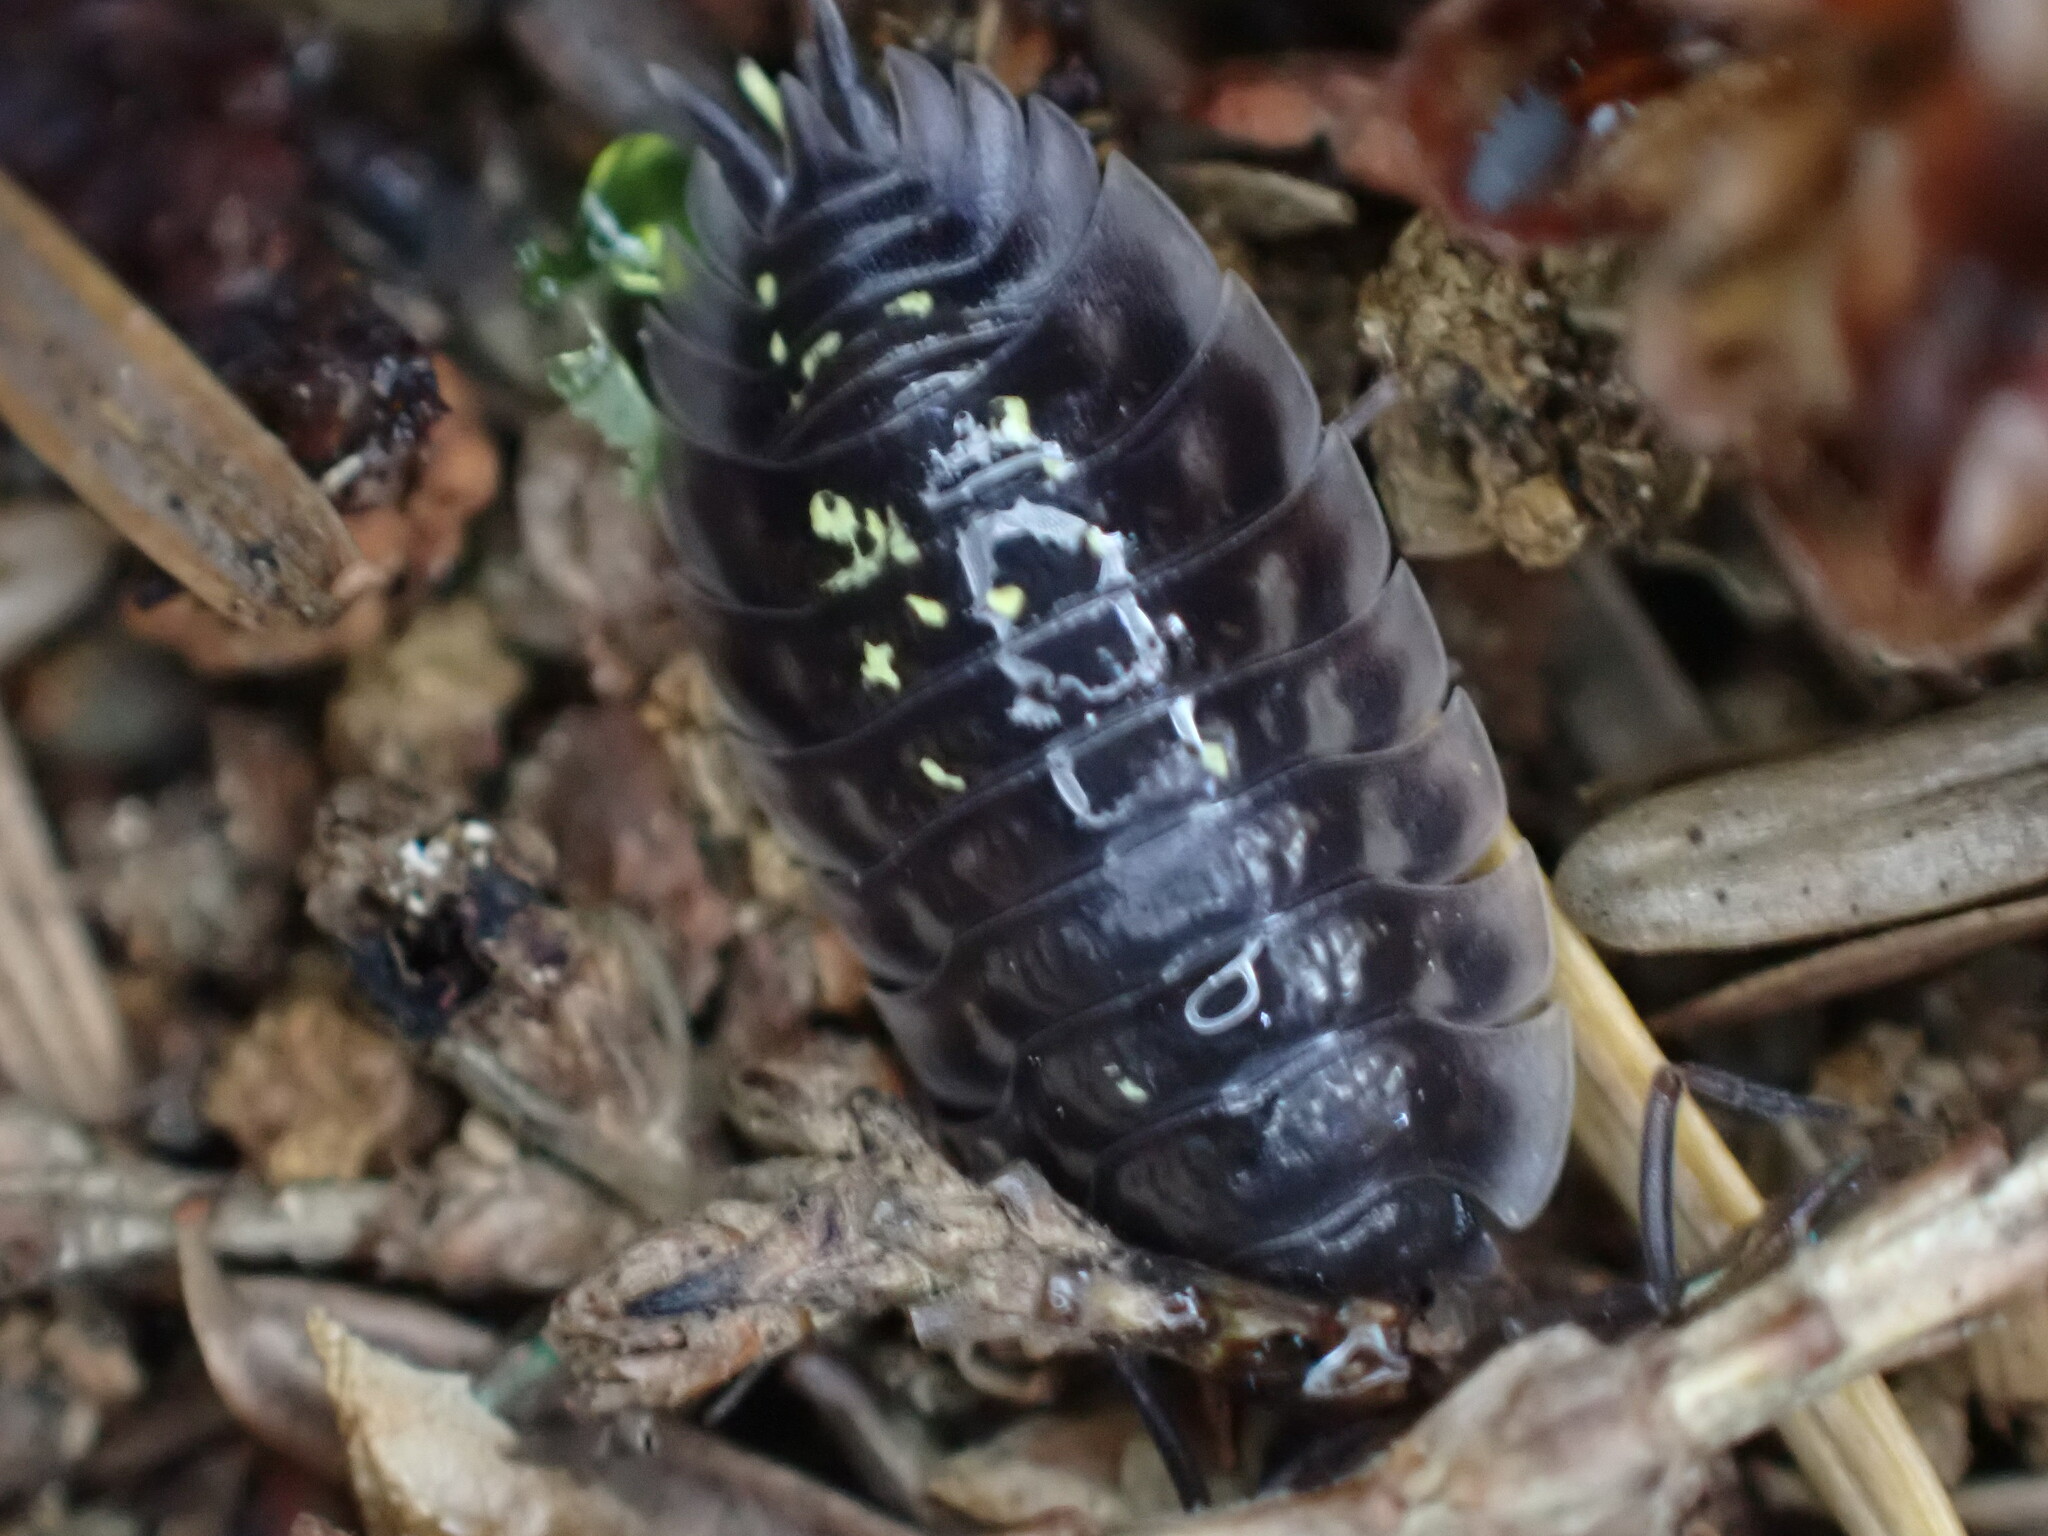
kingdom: Animalia
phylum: Arthropoda
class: Malacostraca
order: Isopoda
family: Oniscidae
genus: Oniscus
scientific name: Oniscus asellus
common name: Common shiny woodlouse
